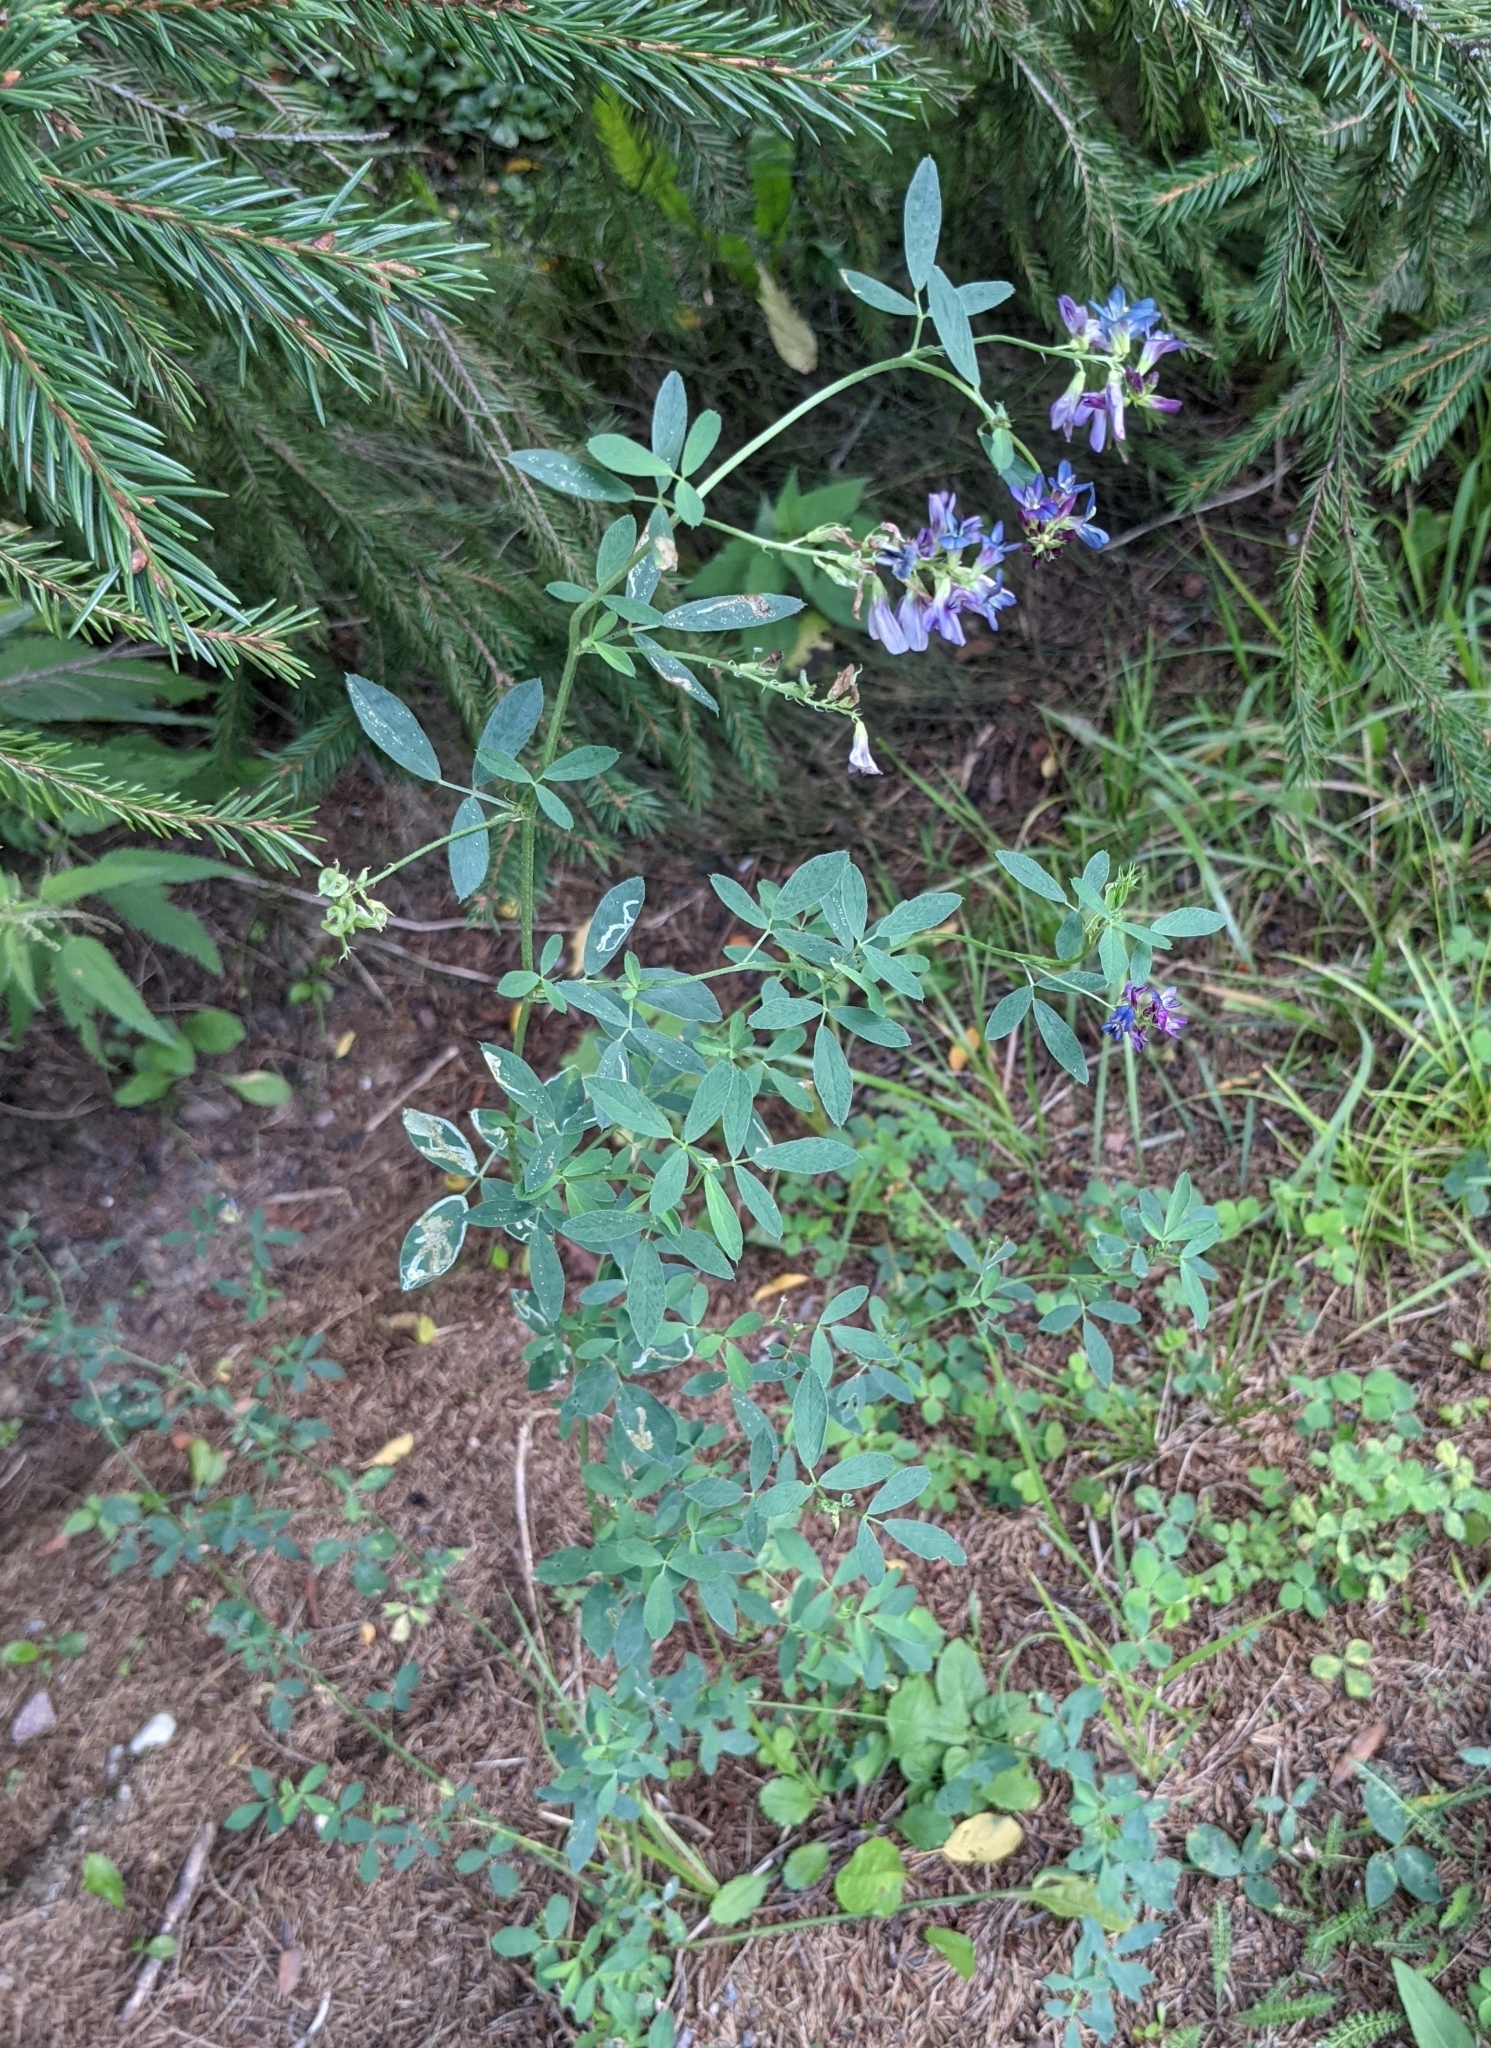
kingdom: Plantae
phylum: Tracheophyta
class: Magnoliopsida
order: Fabales
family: Fabaceae
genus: Medicago
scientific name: Medicago varia
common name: Sand lucerne
